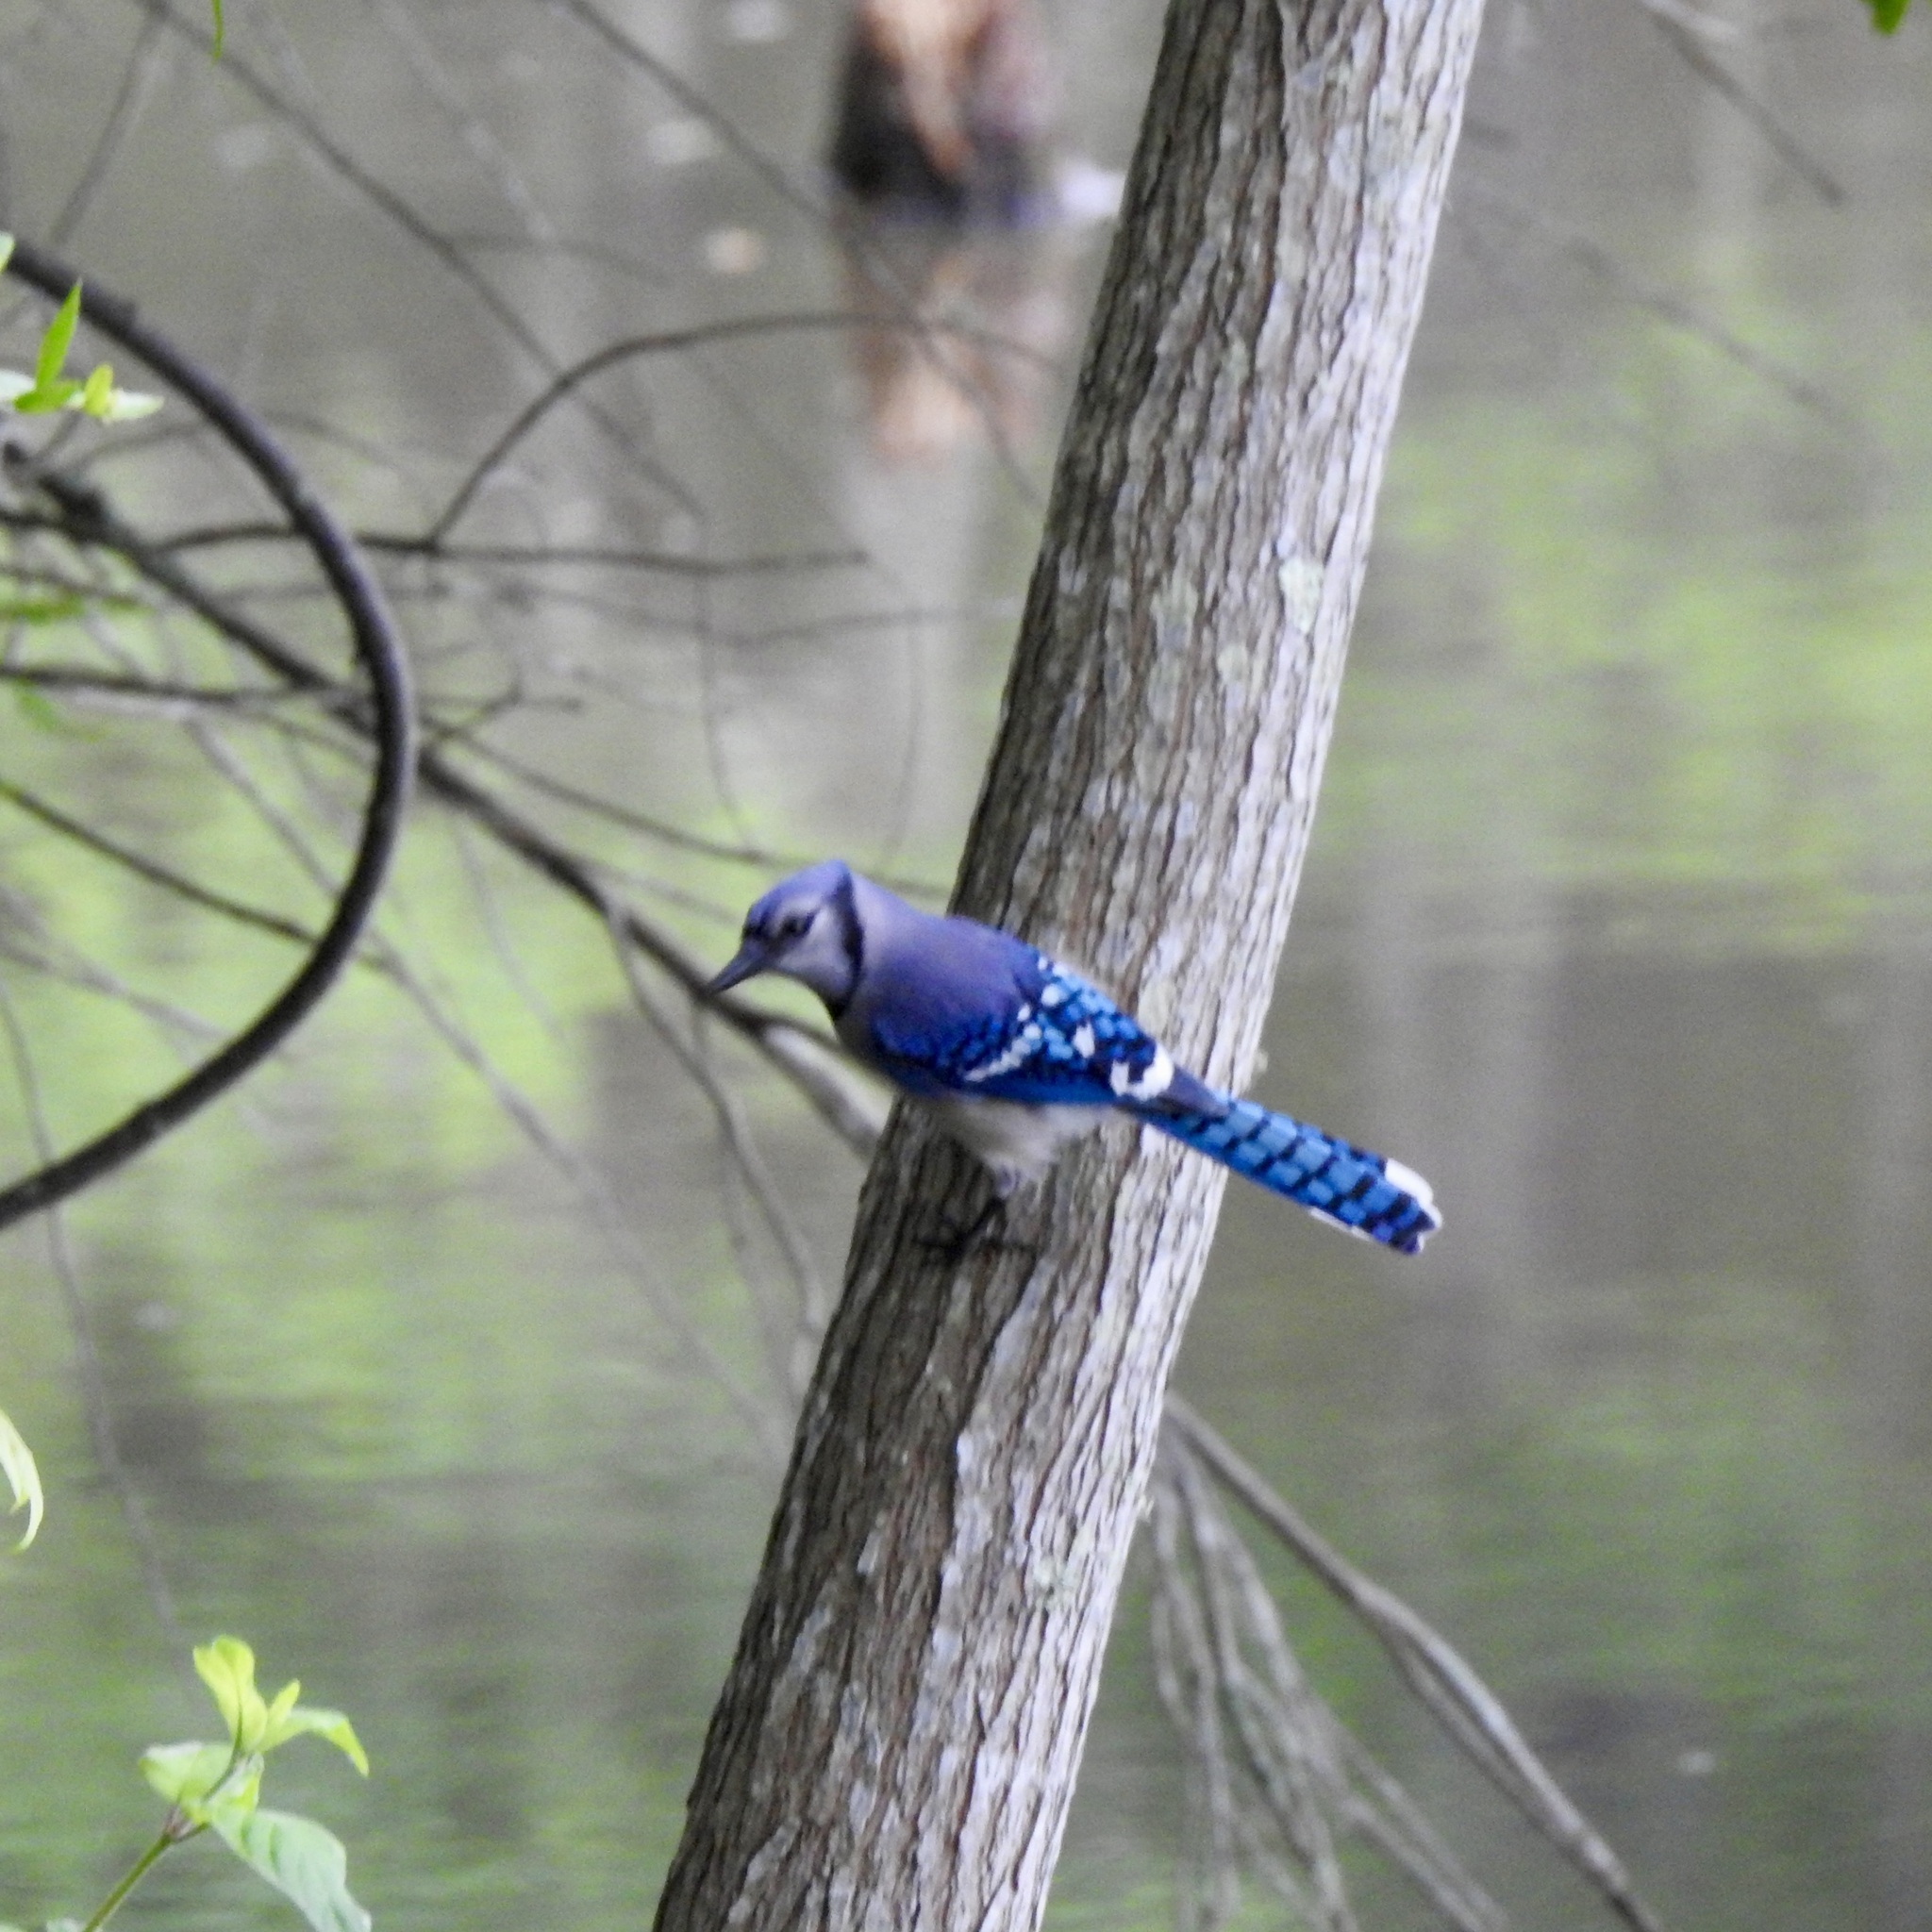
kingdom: Animalia
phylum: Chordata
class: Aves
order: Passeriformes
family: Corvidae
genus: Cyanocitta
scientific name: Cyanocitta cristata
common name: Blue jay
